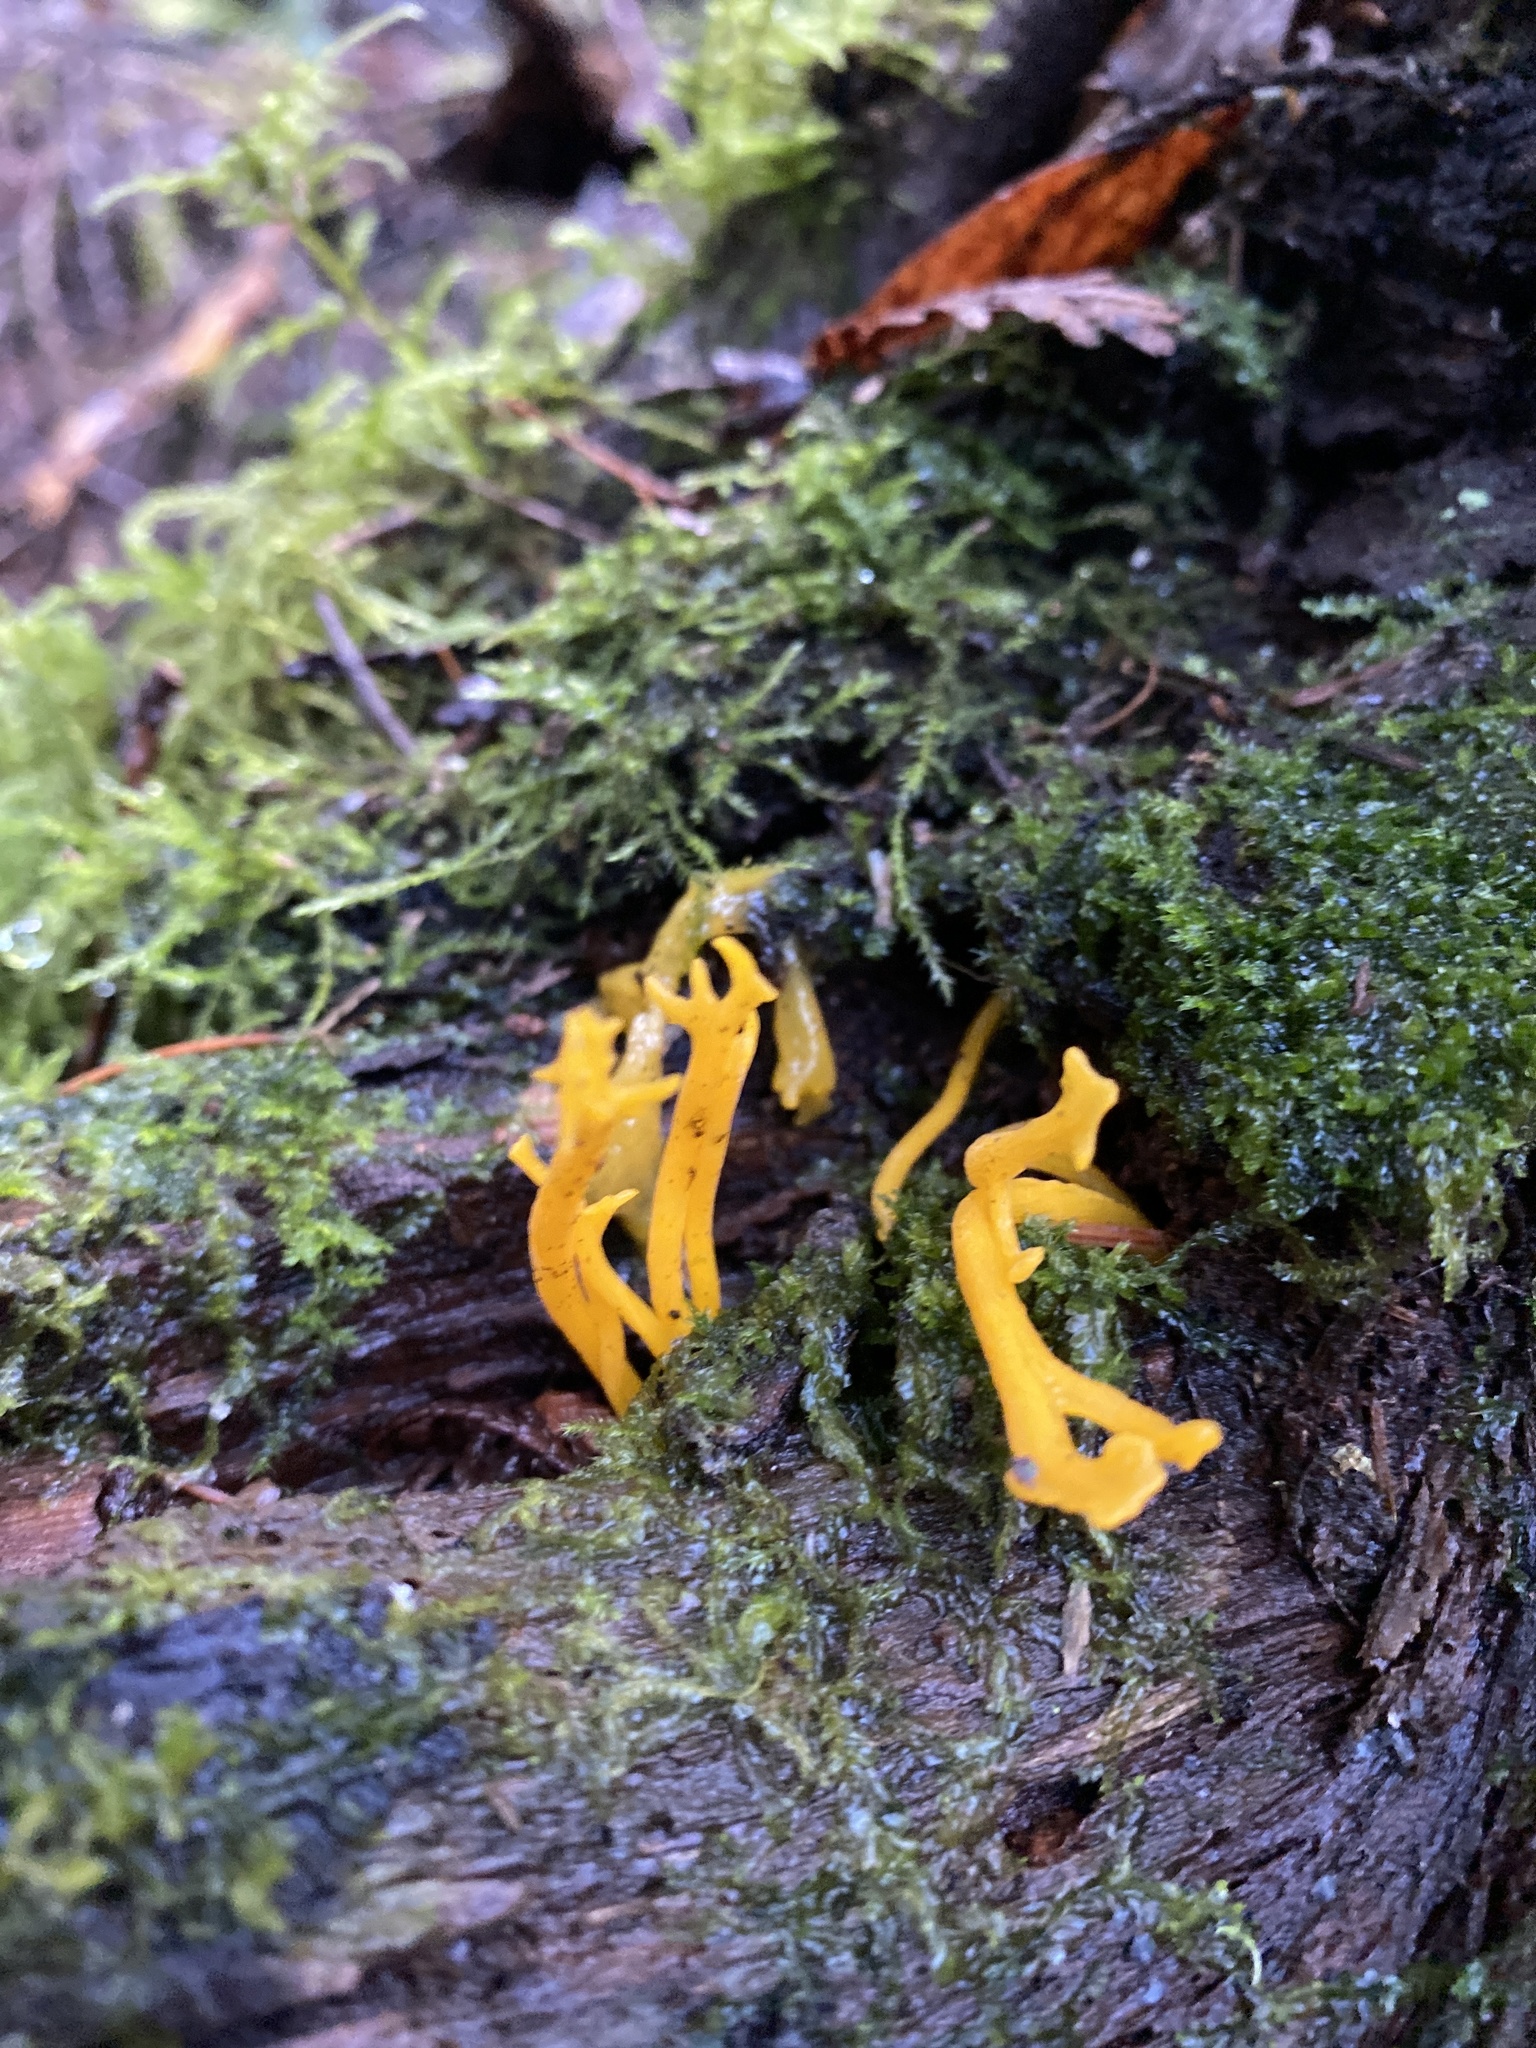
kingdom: Fungi
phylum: Basidiomycota
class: Dacrymycetes
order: Dacrymycetales
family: Dacrymycetaceae
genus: Calocera
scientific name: Calocera viscosa
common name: Yellow stagshorn
